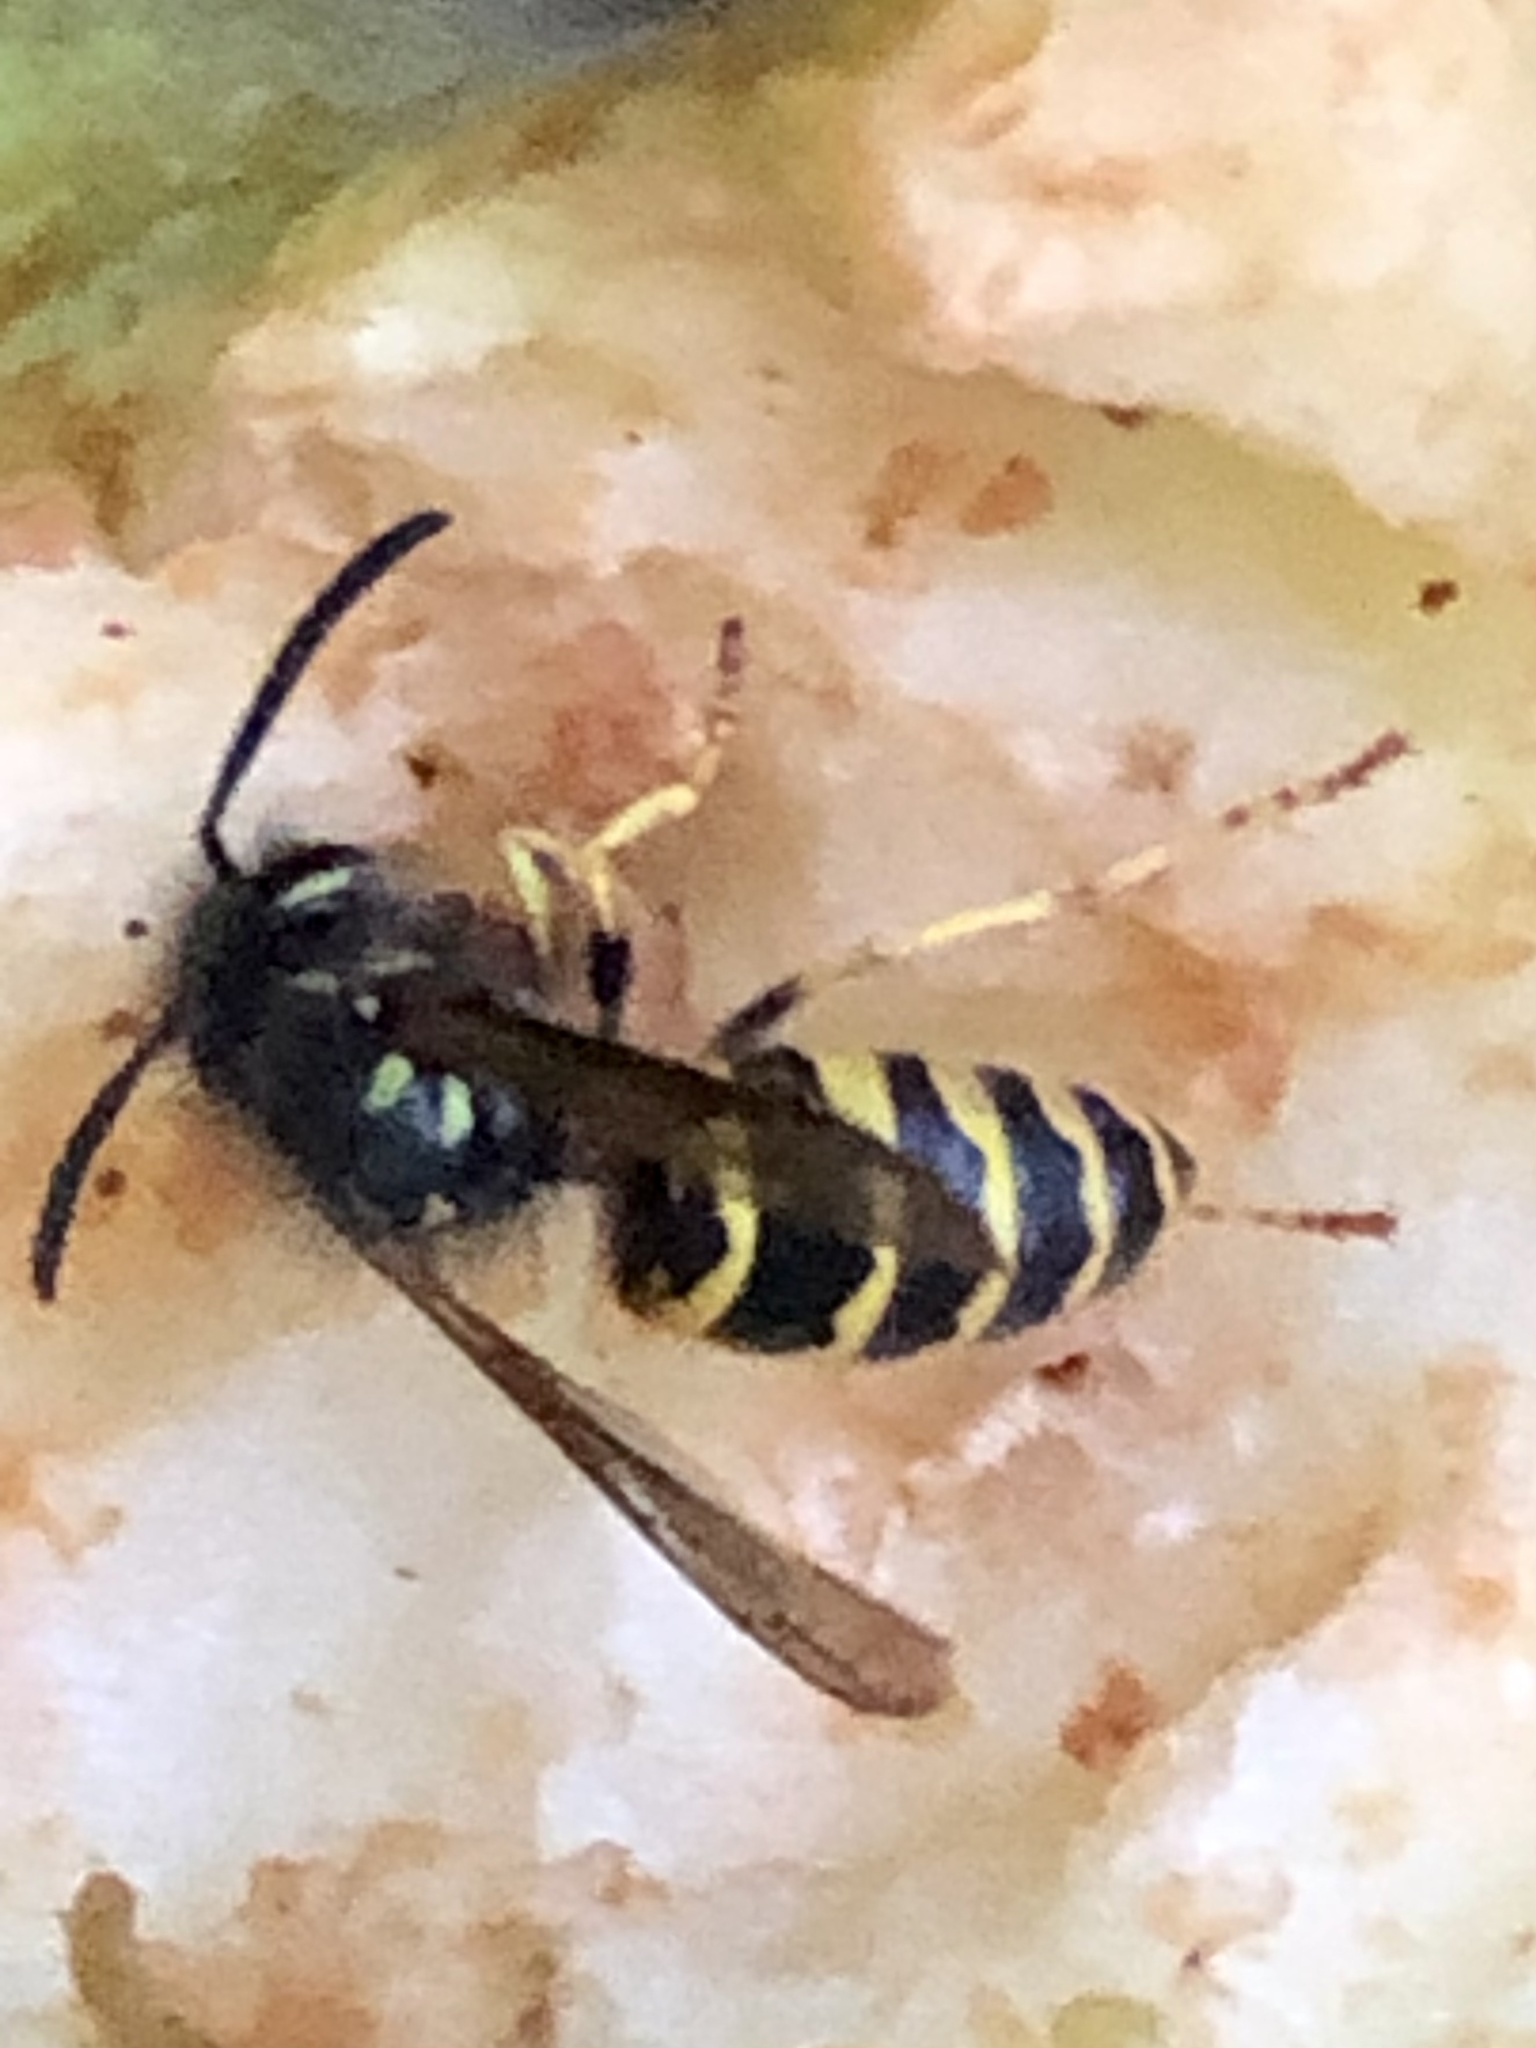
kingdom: Animalia
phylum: Arthropoda
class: Insecta
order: Hymenoptera
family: Vespidae
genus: Vespula
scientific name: Vespula alascensis
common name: Alaska yellowjacket
